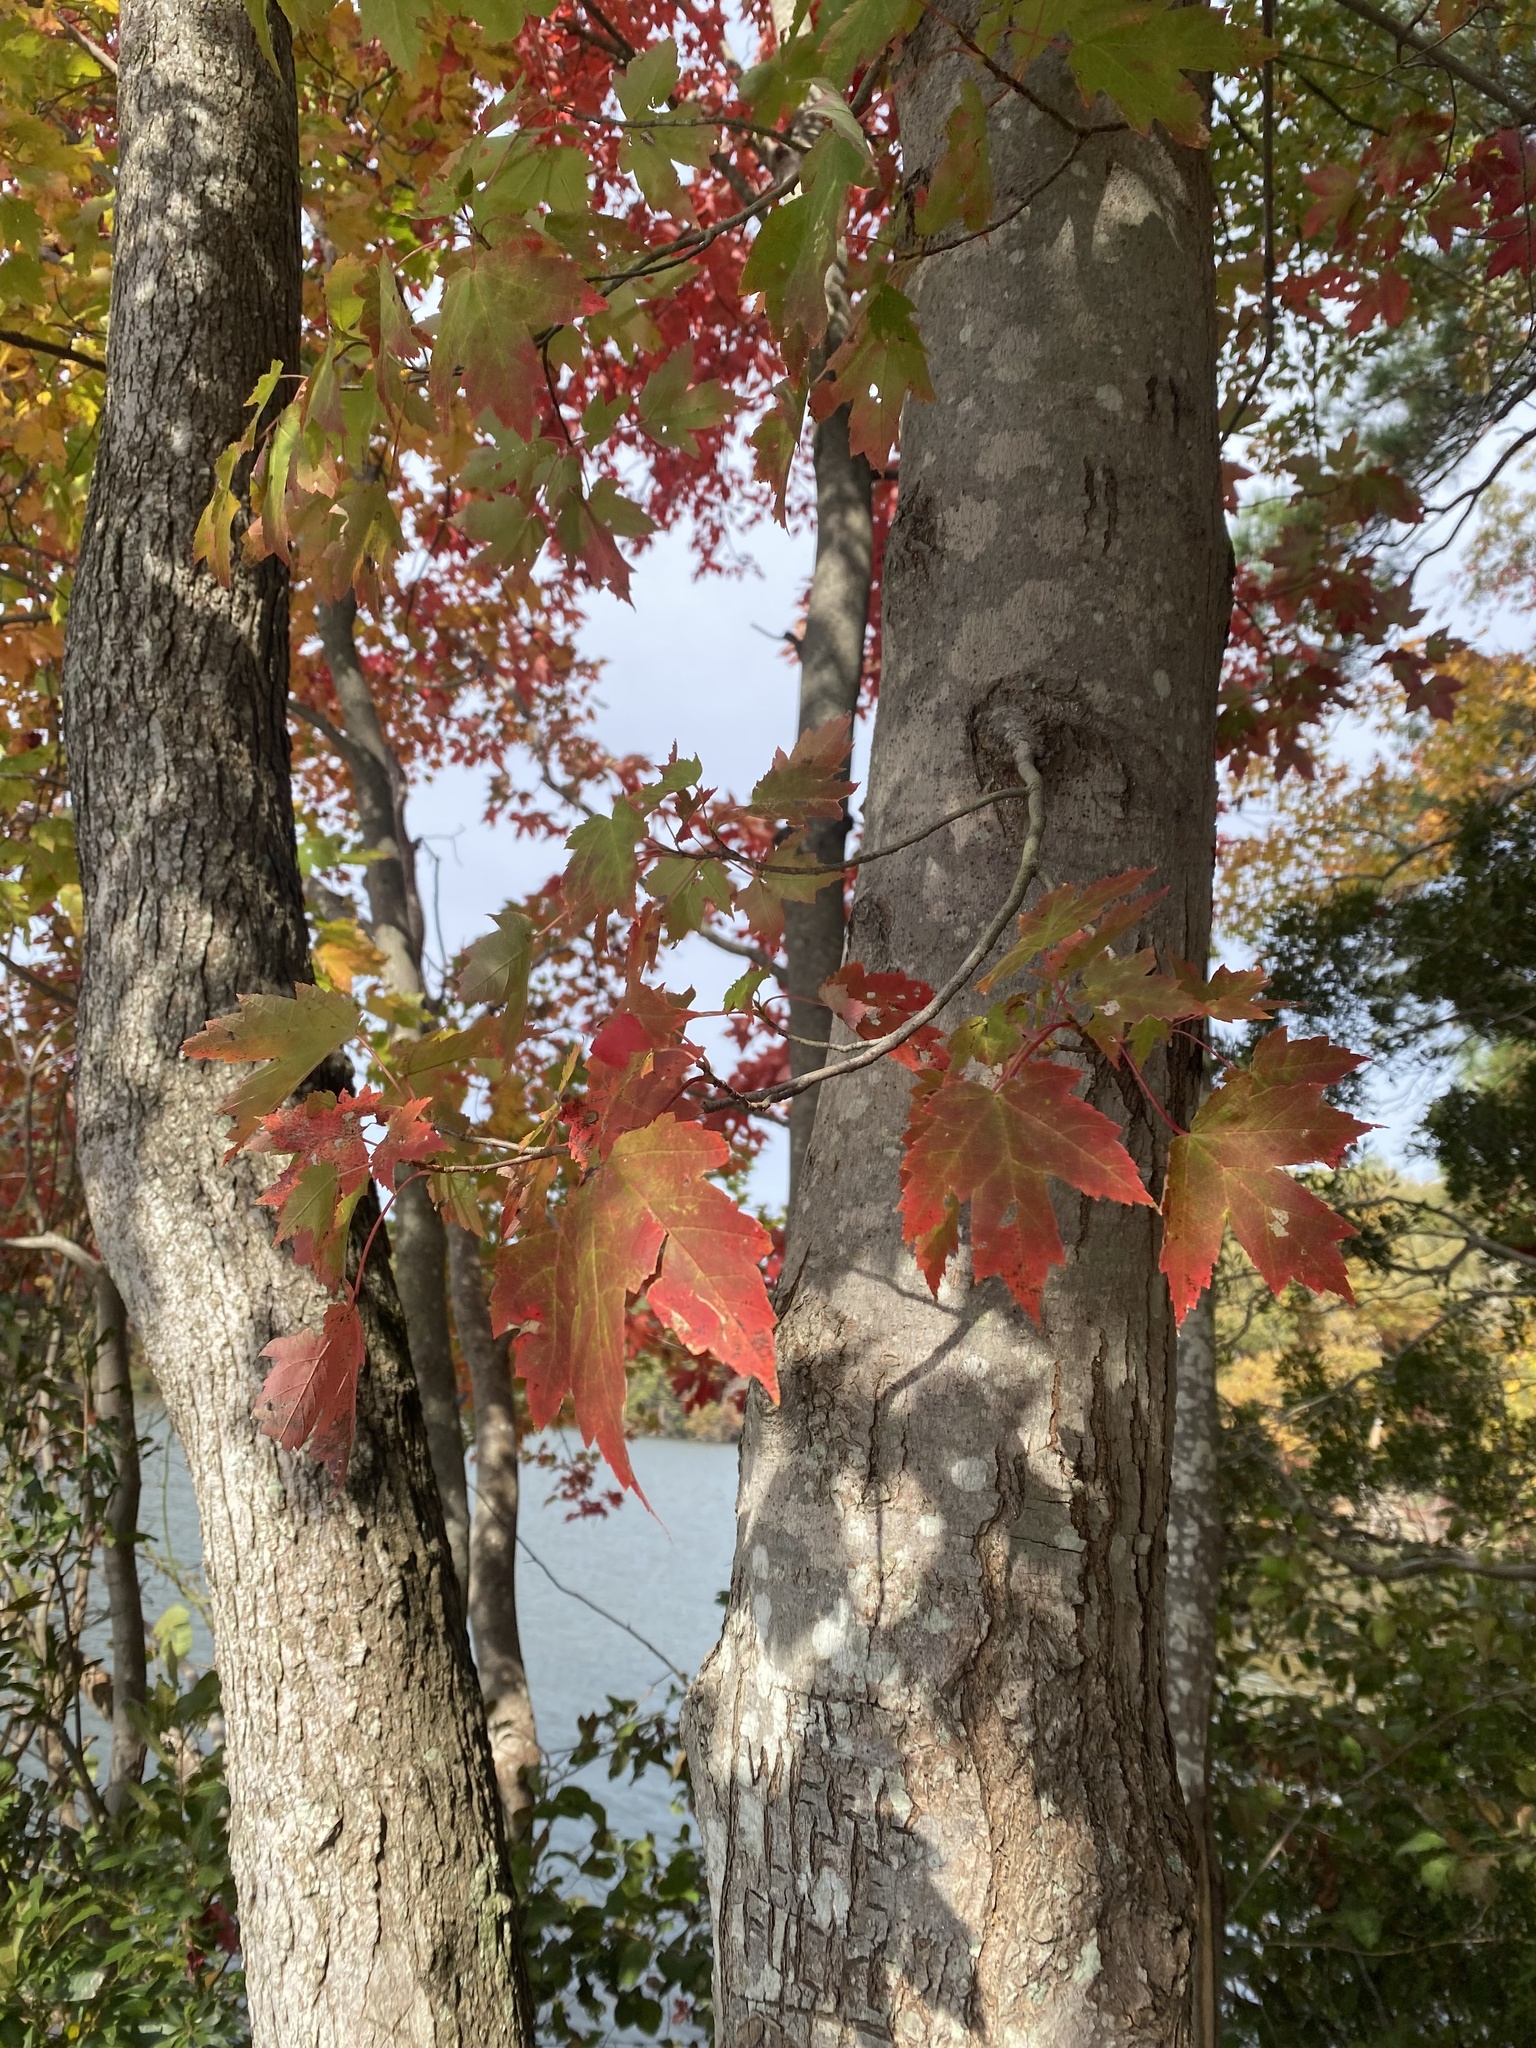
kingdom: Plantae
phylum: Tracheophyta
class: Magnoliopsida
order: Sapindales
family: Sapindaceae
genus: Acer
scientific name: Acer rubrum
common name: Red maple
